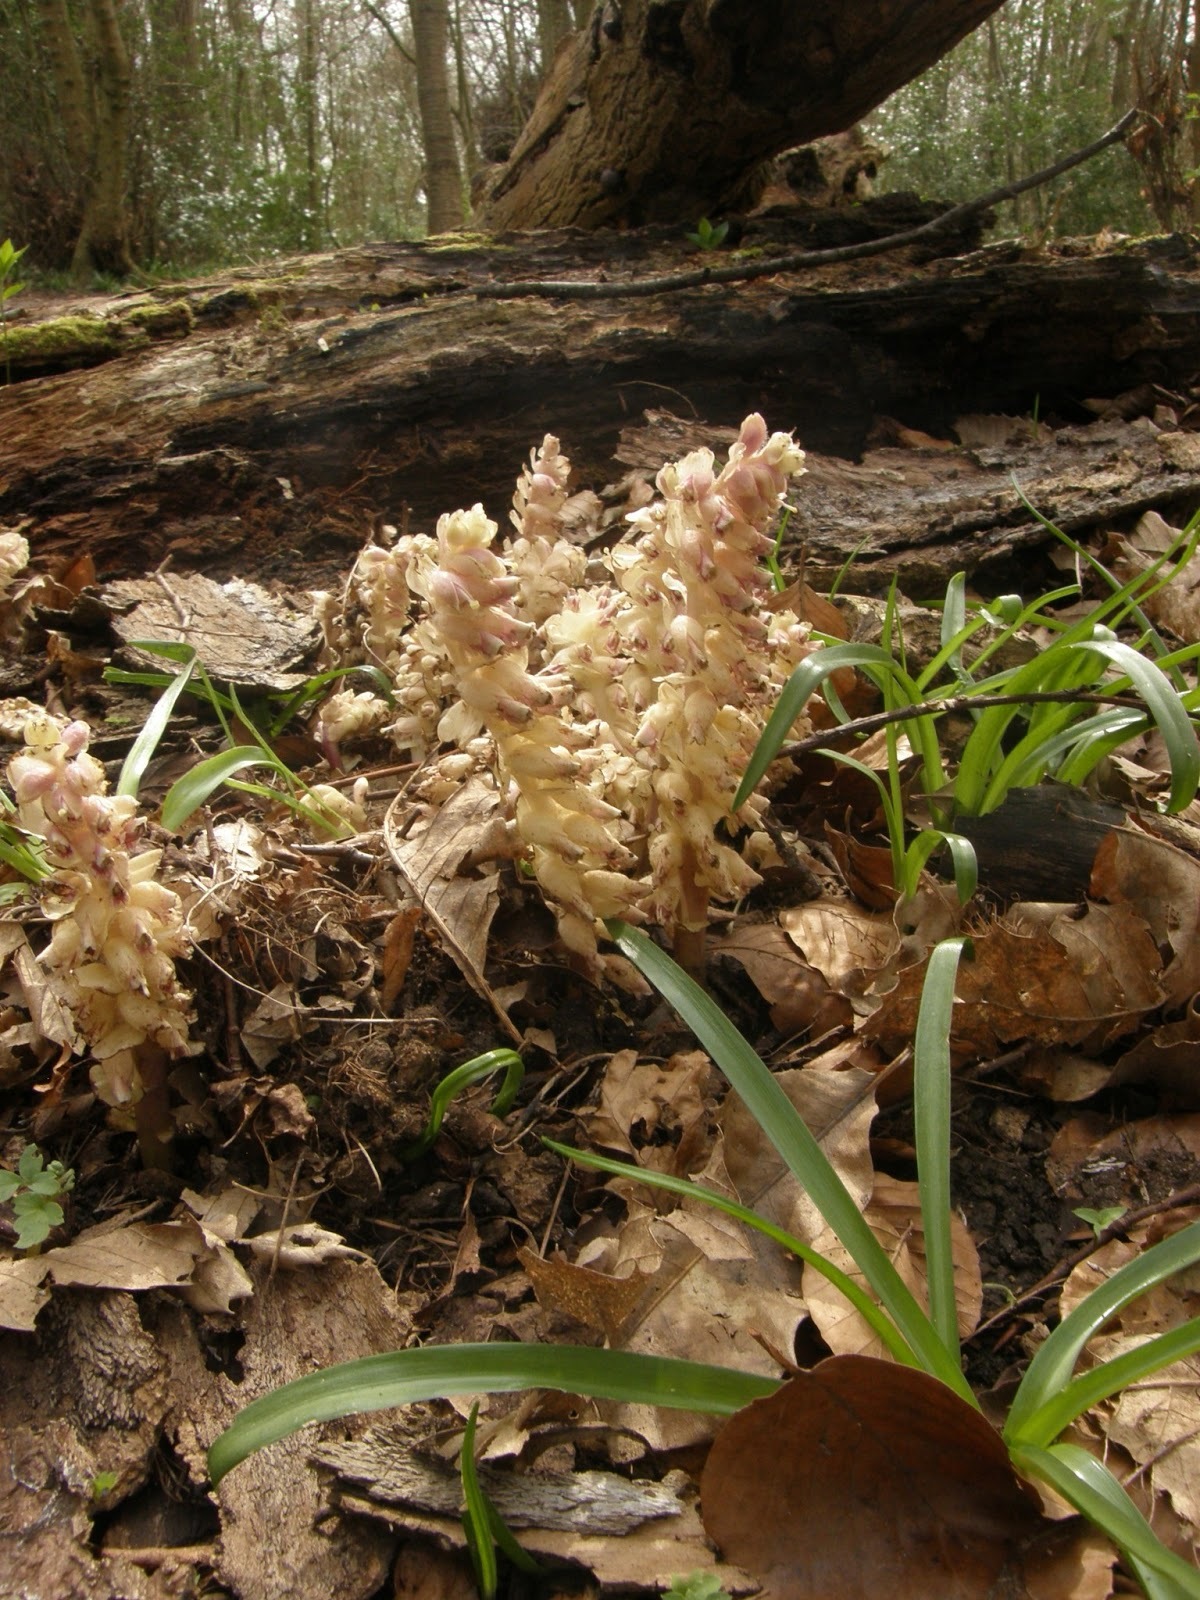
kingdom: Plantae
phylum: Tracheophyta
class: Magnoliopsida
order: Lamiales
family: Orobanchaceae
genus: Lathraea
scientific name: Lathraea squamaria
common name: Toothwort
